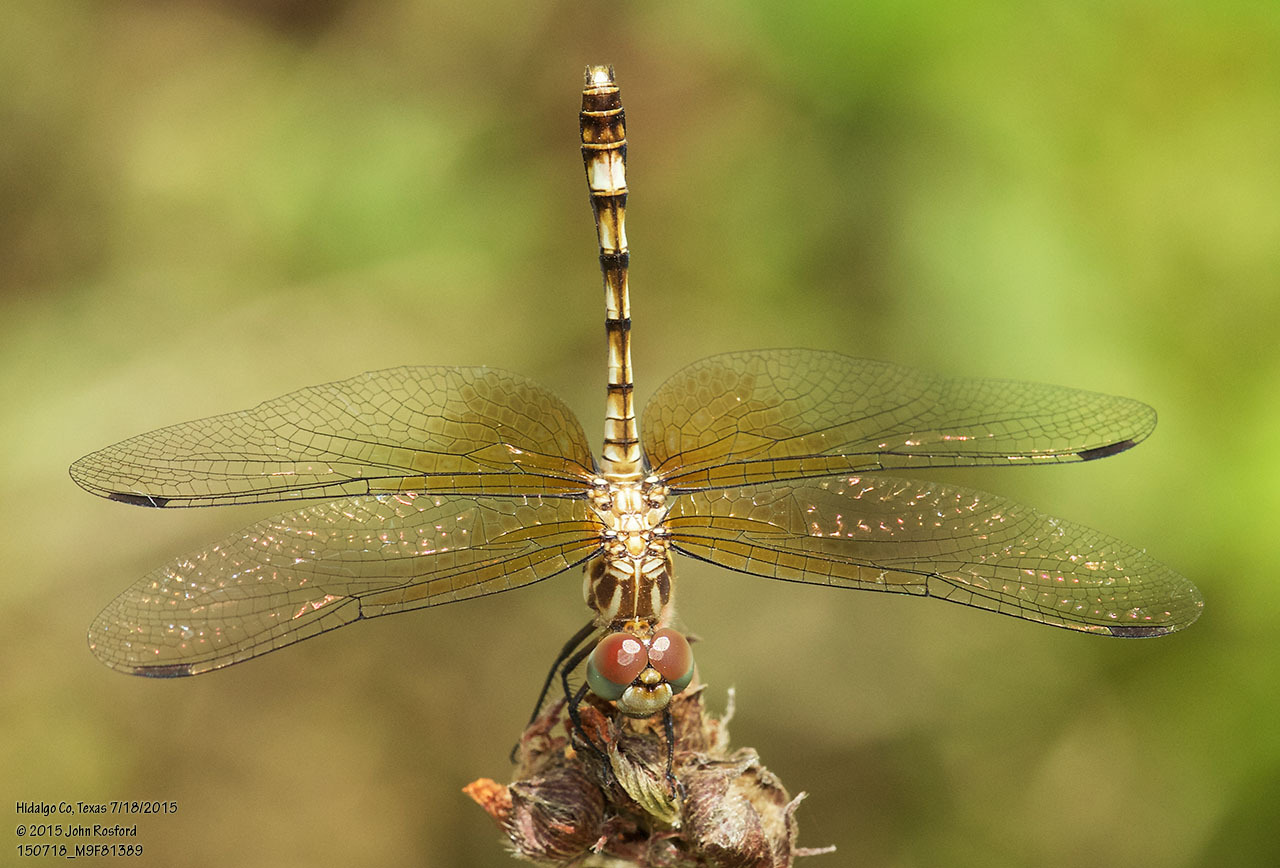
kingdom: Animalia
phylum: Arthropoda
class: Insecta
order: Odonata
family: Libellulidae
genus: Micrathyria
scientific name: Micrathyria hagenii
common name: Thornbush dasher
